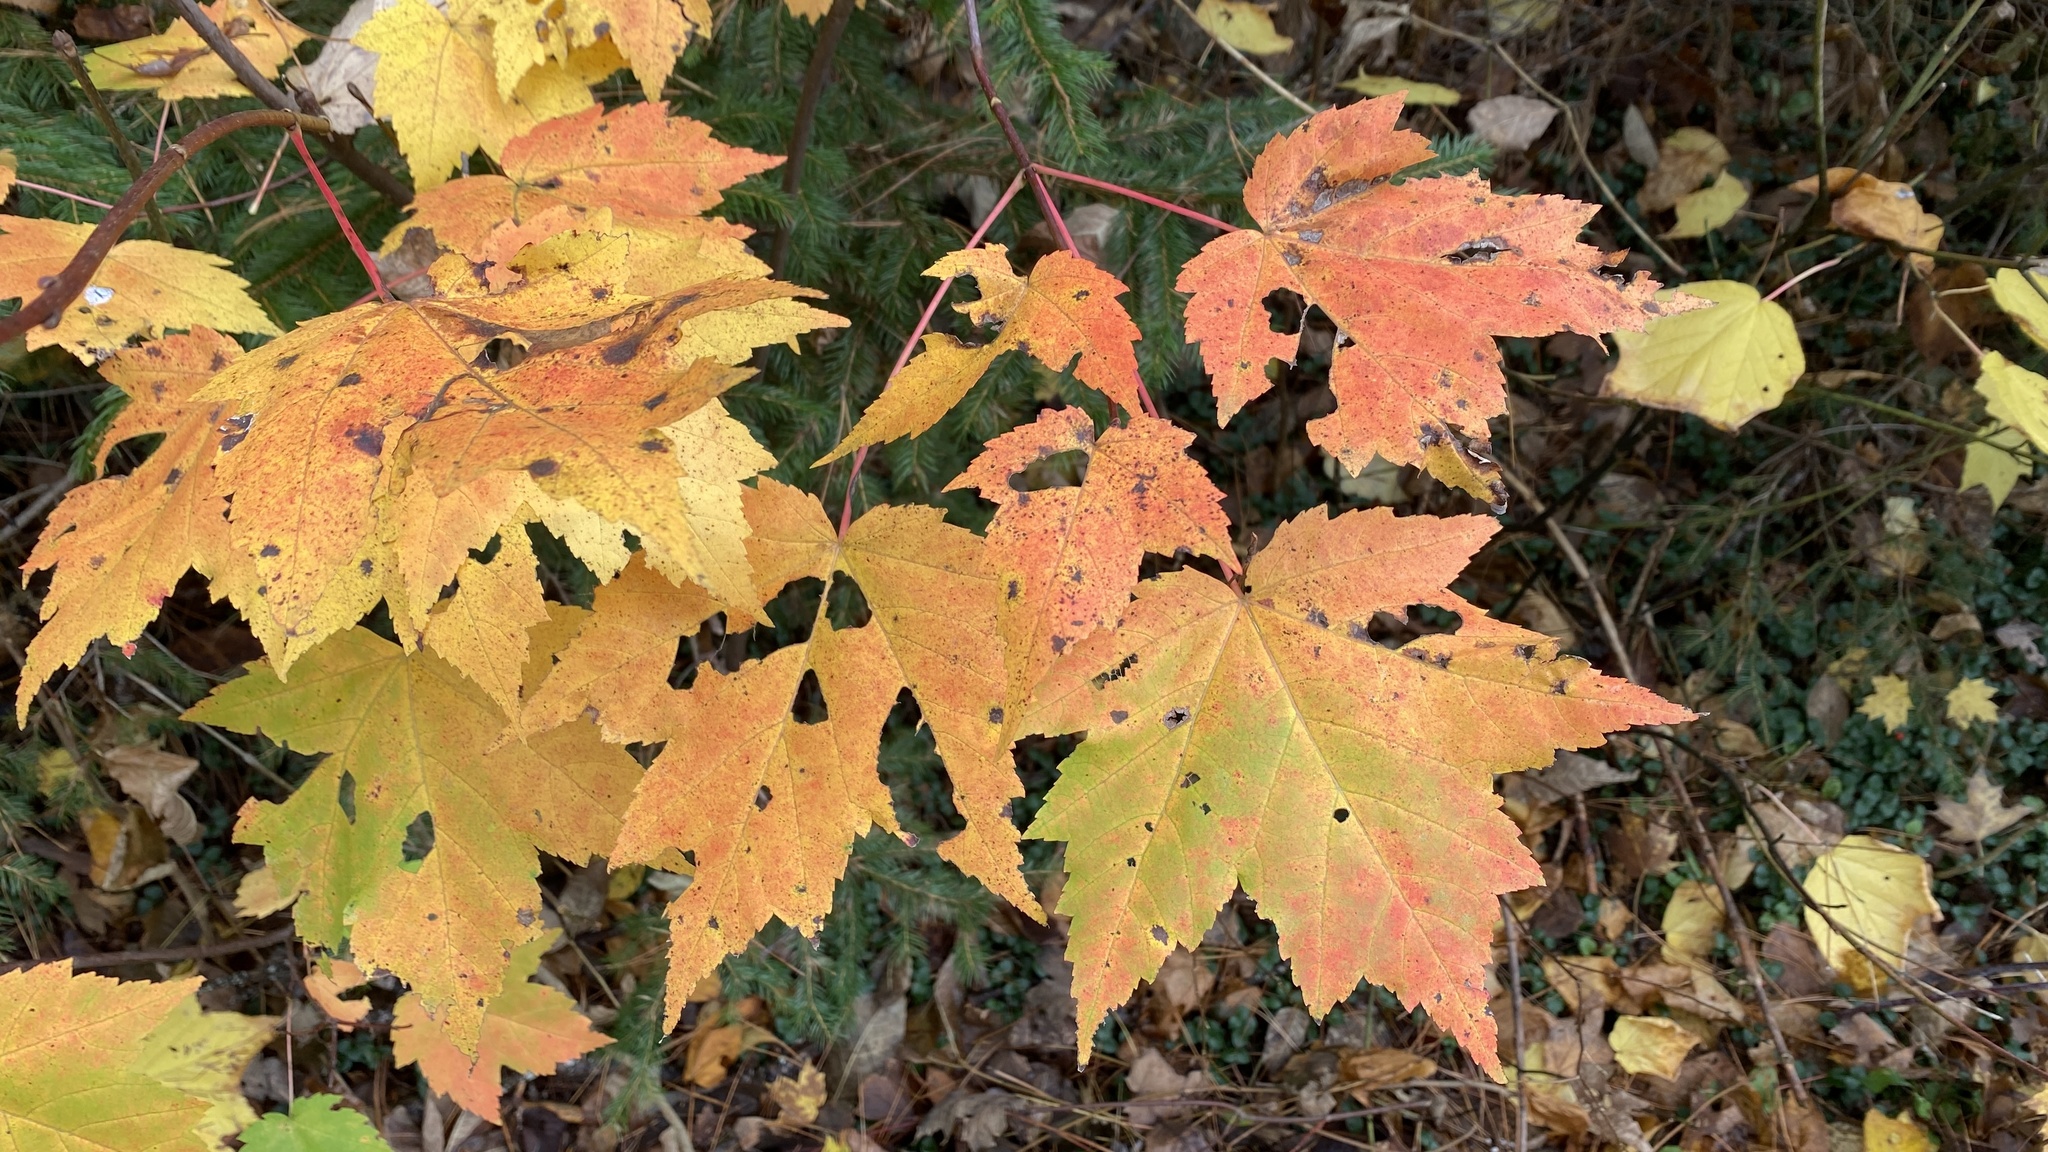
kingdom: Plantae
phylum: Tracheophyta
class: Magnoliopsida
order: Sapindales
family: Sapindaceae
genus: Acer
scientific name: Acer rubrum
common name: Red maple
